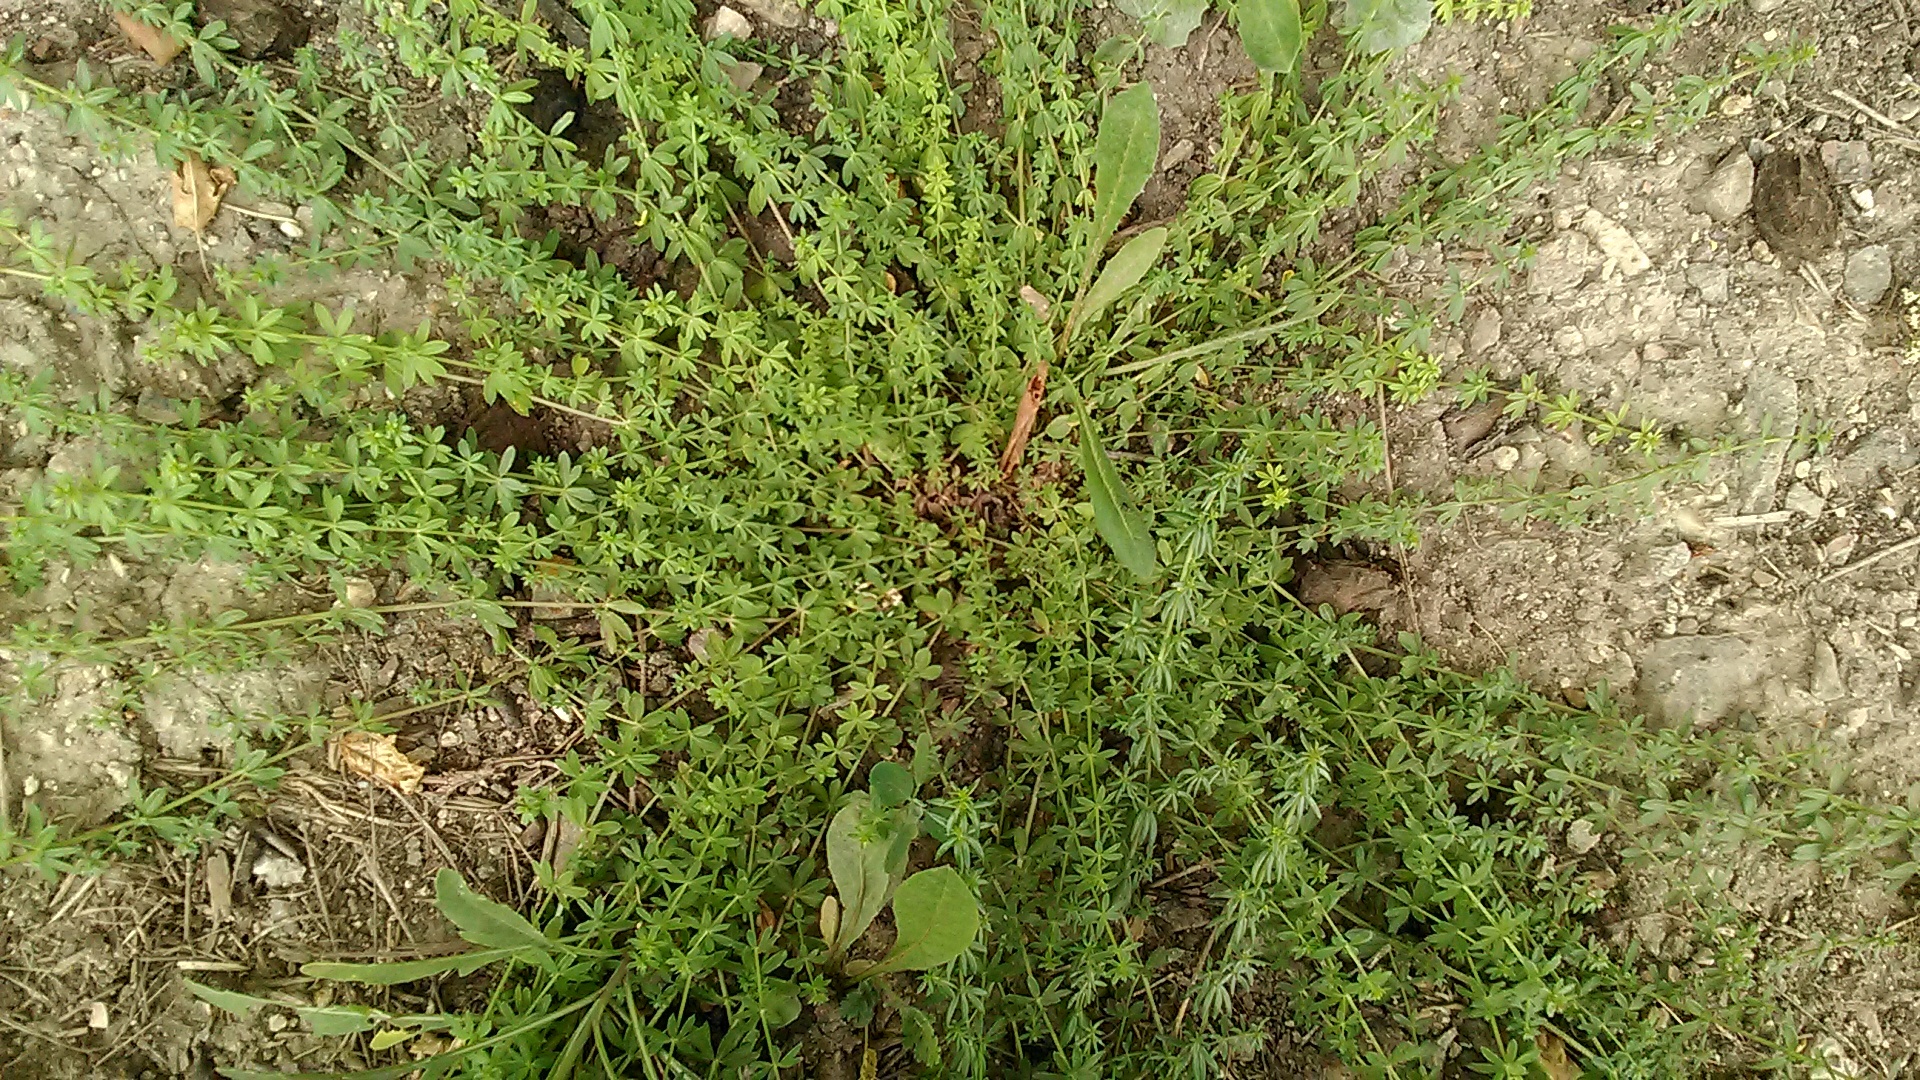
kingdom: Plantae
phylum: Tracheophyta
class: Magnoliopsida
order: Gentianales
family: Rubiaceae
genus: Galium
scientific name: Galium humifusum
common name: Spreading bedstraw
